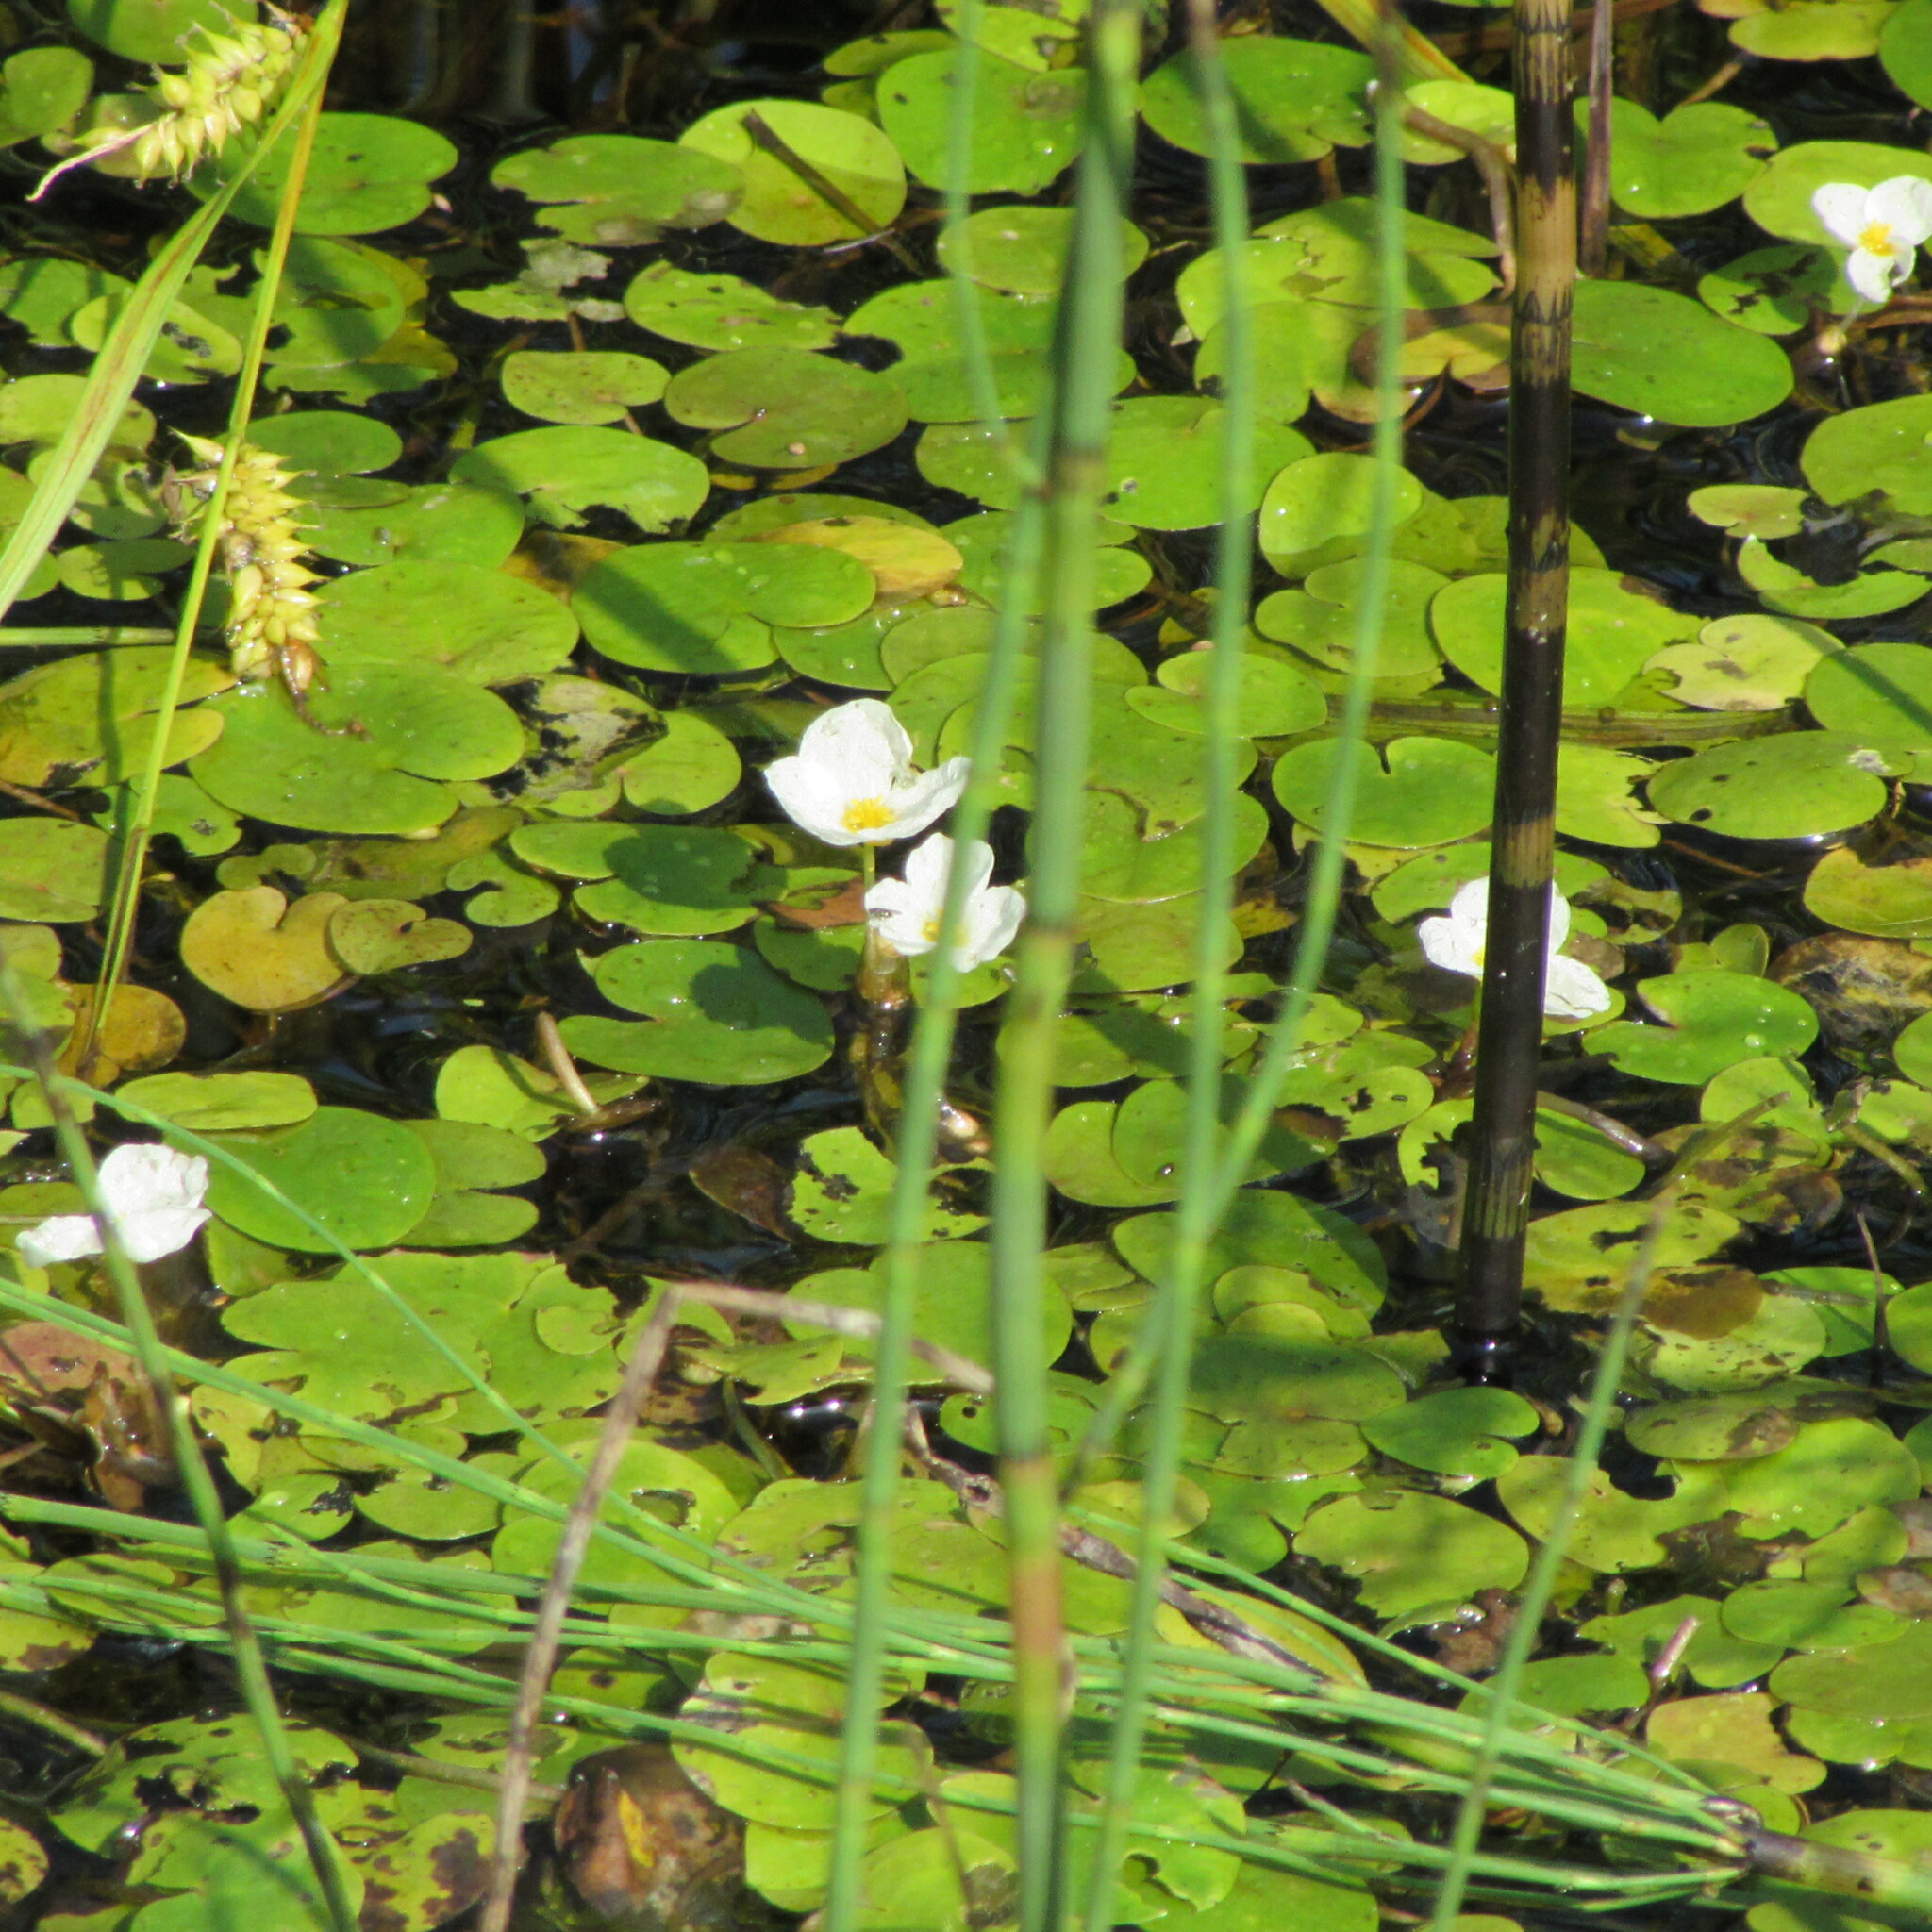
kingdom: Plantae
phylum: Tracheophyta
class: Liliopsida
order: Alismatales
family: Hydrocharitaceae
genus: Hydrocharis
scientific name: Hydrocharis morsus-ranae
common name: Frogbit
